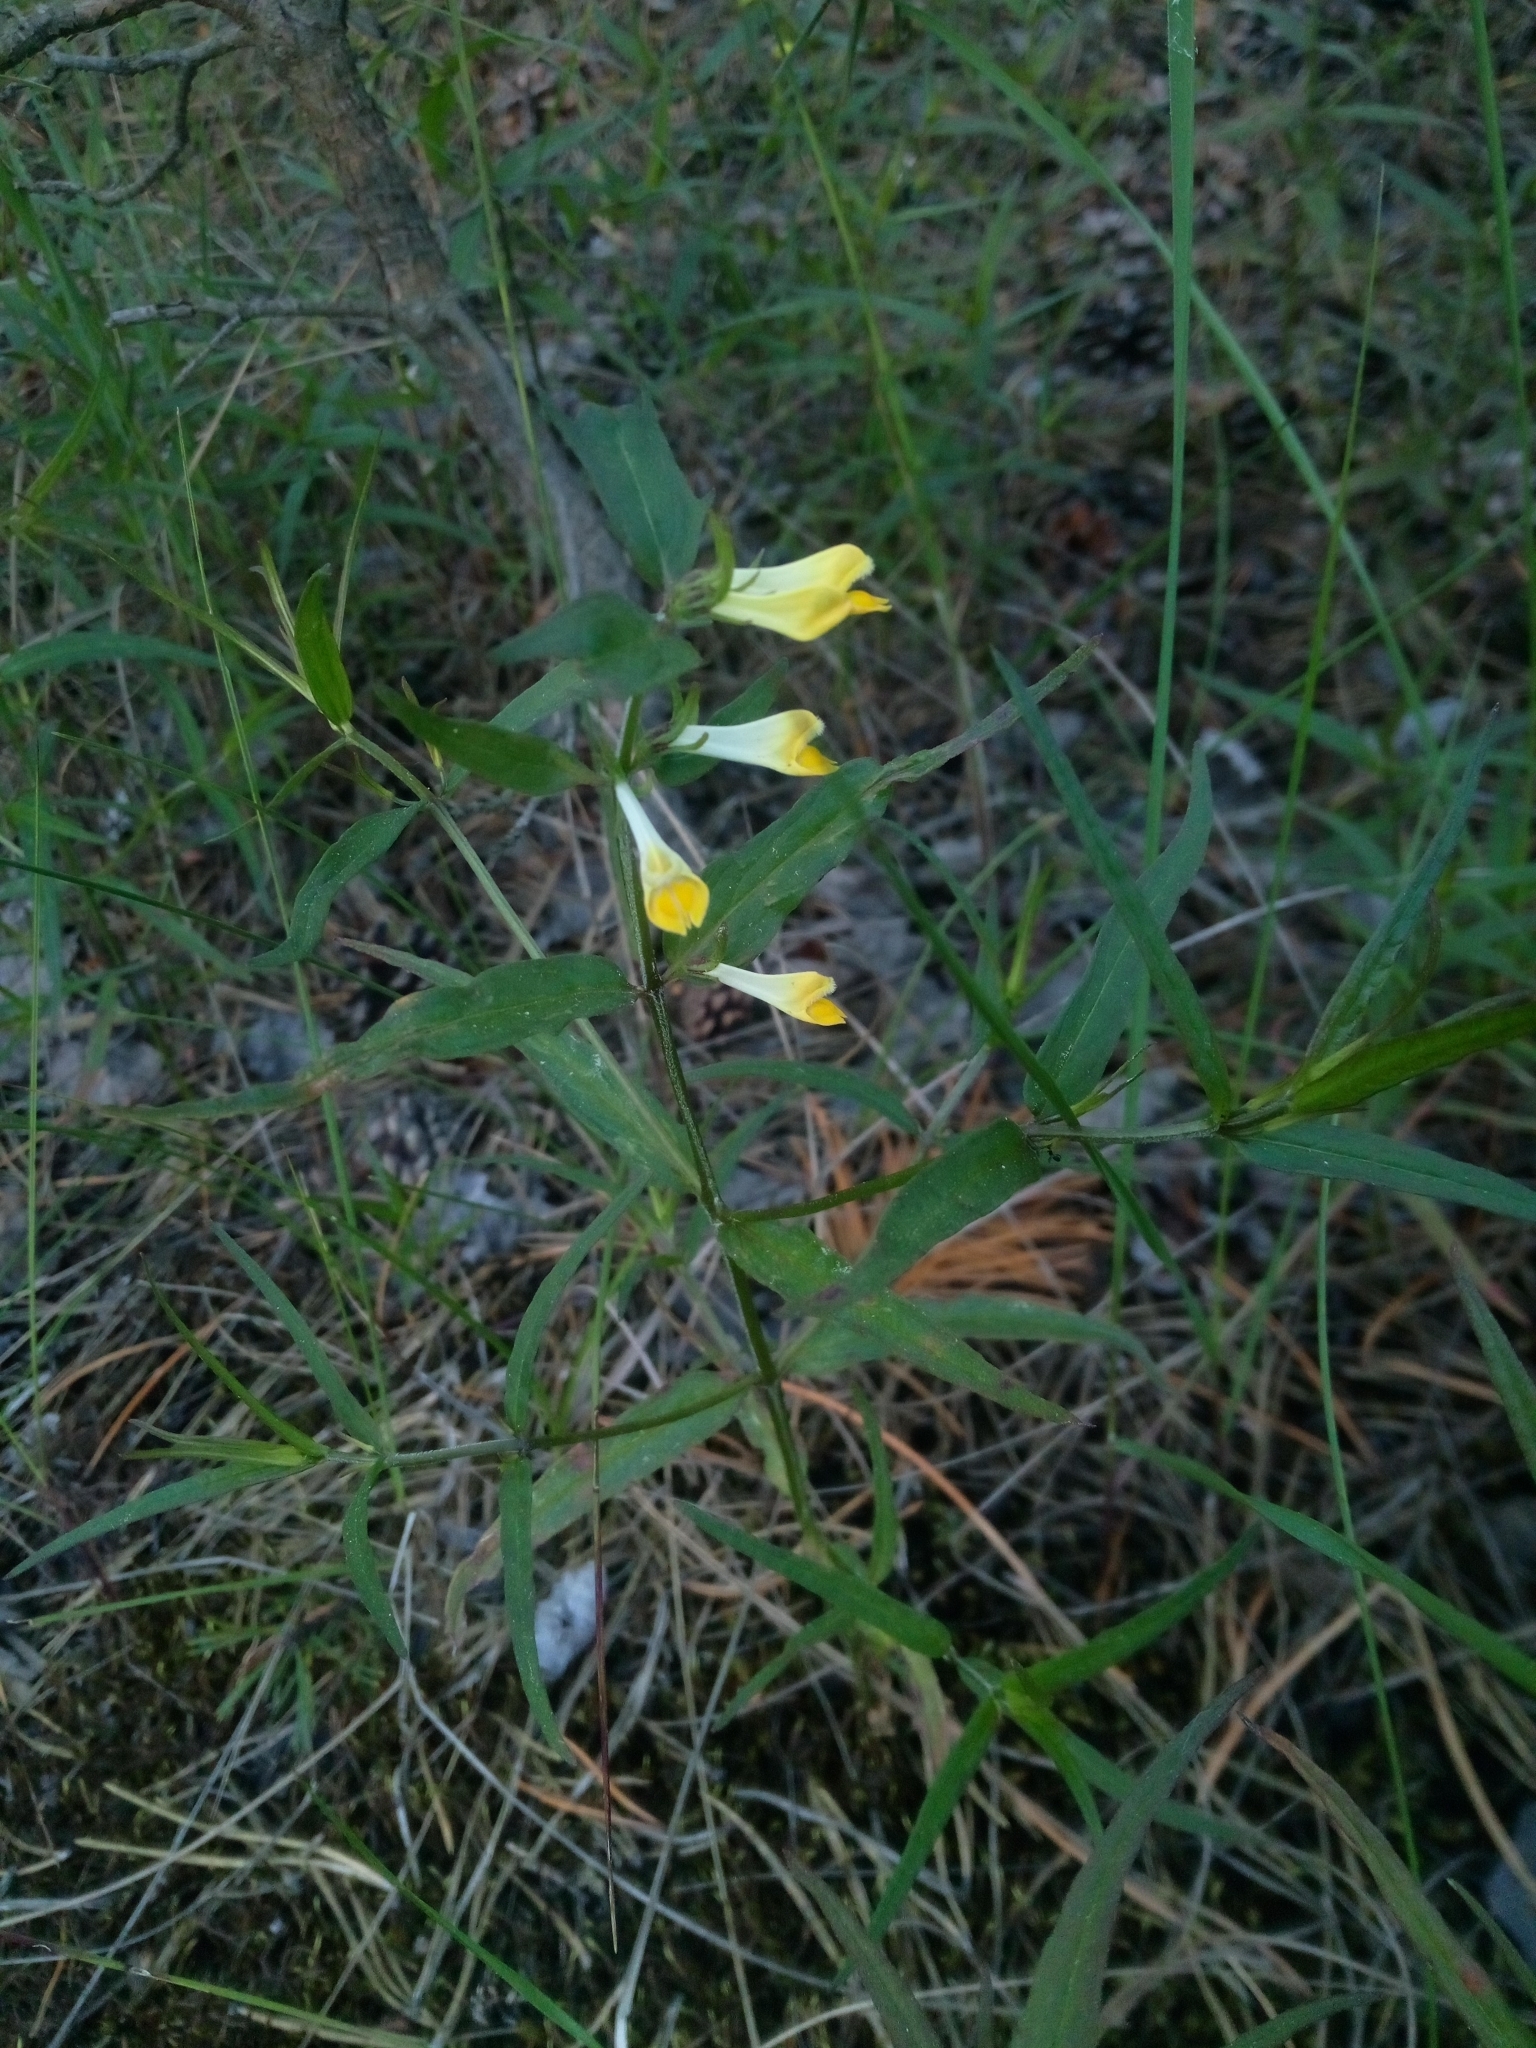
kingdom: Plantae
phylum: Tracheophyta
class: Magnoliopsida
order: Lamiales
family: Orobanchaceae
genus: Melampyrum
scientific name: Melampyrum pratense
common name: Common cow-wheat
